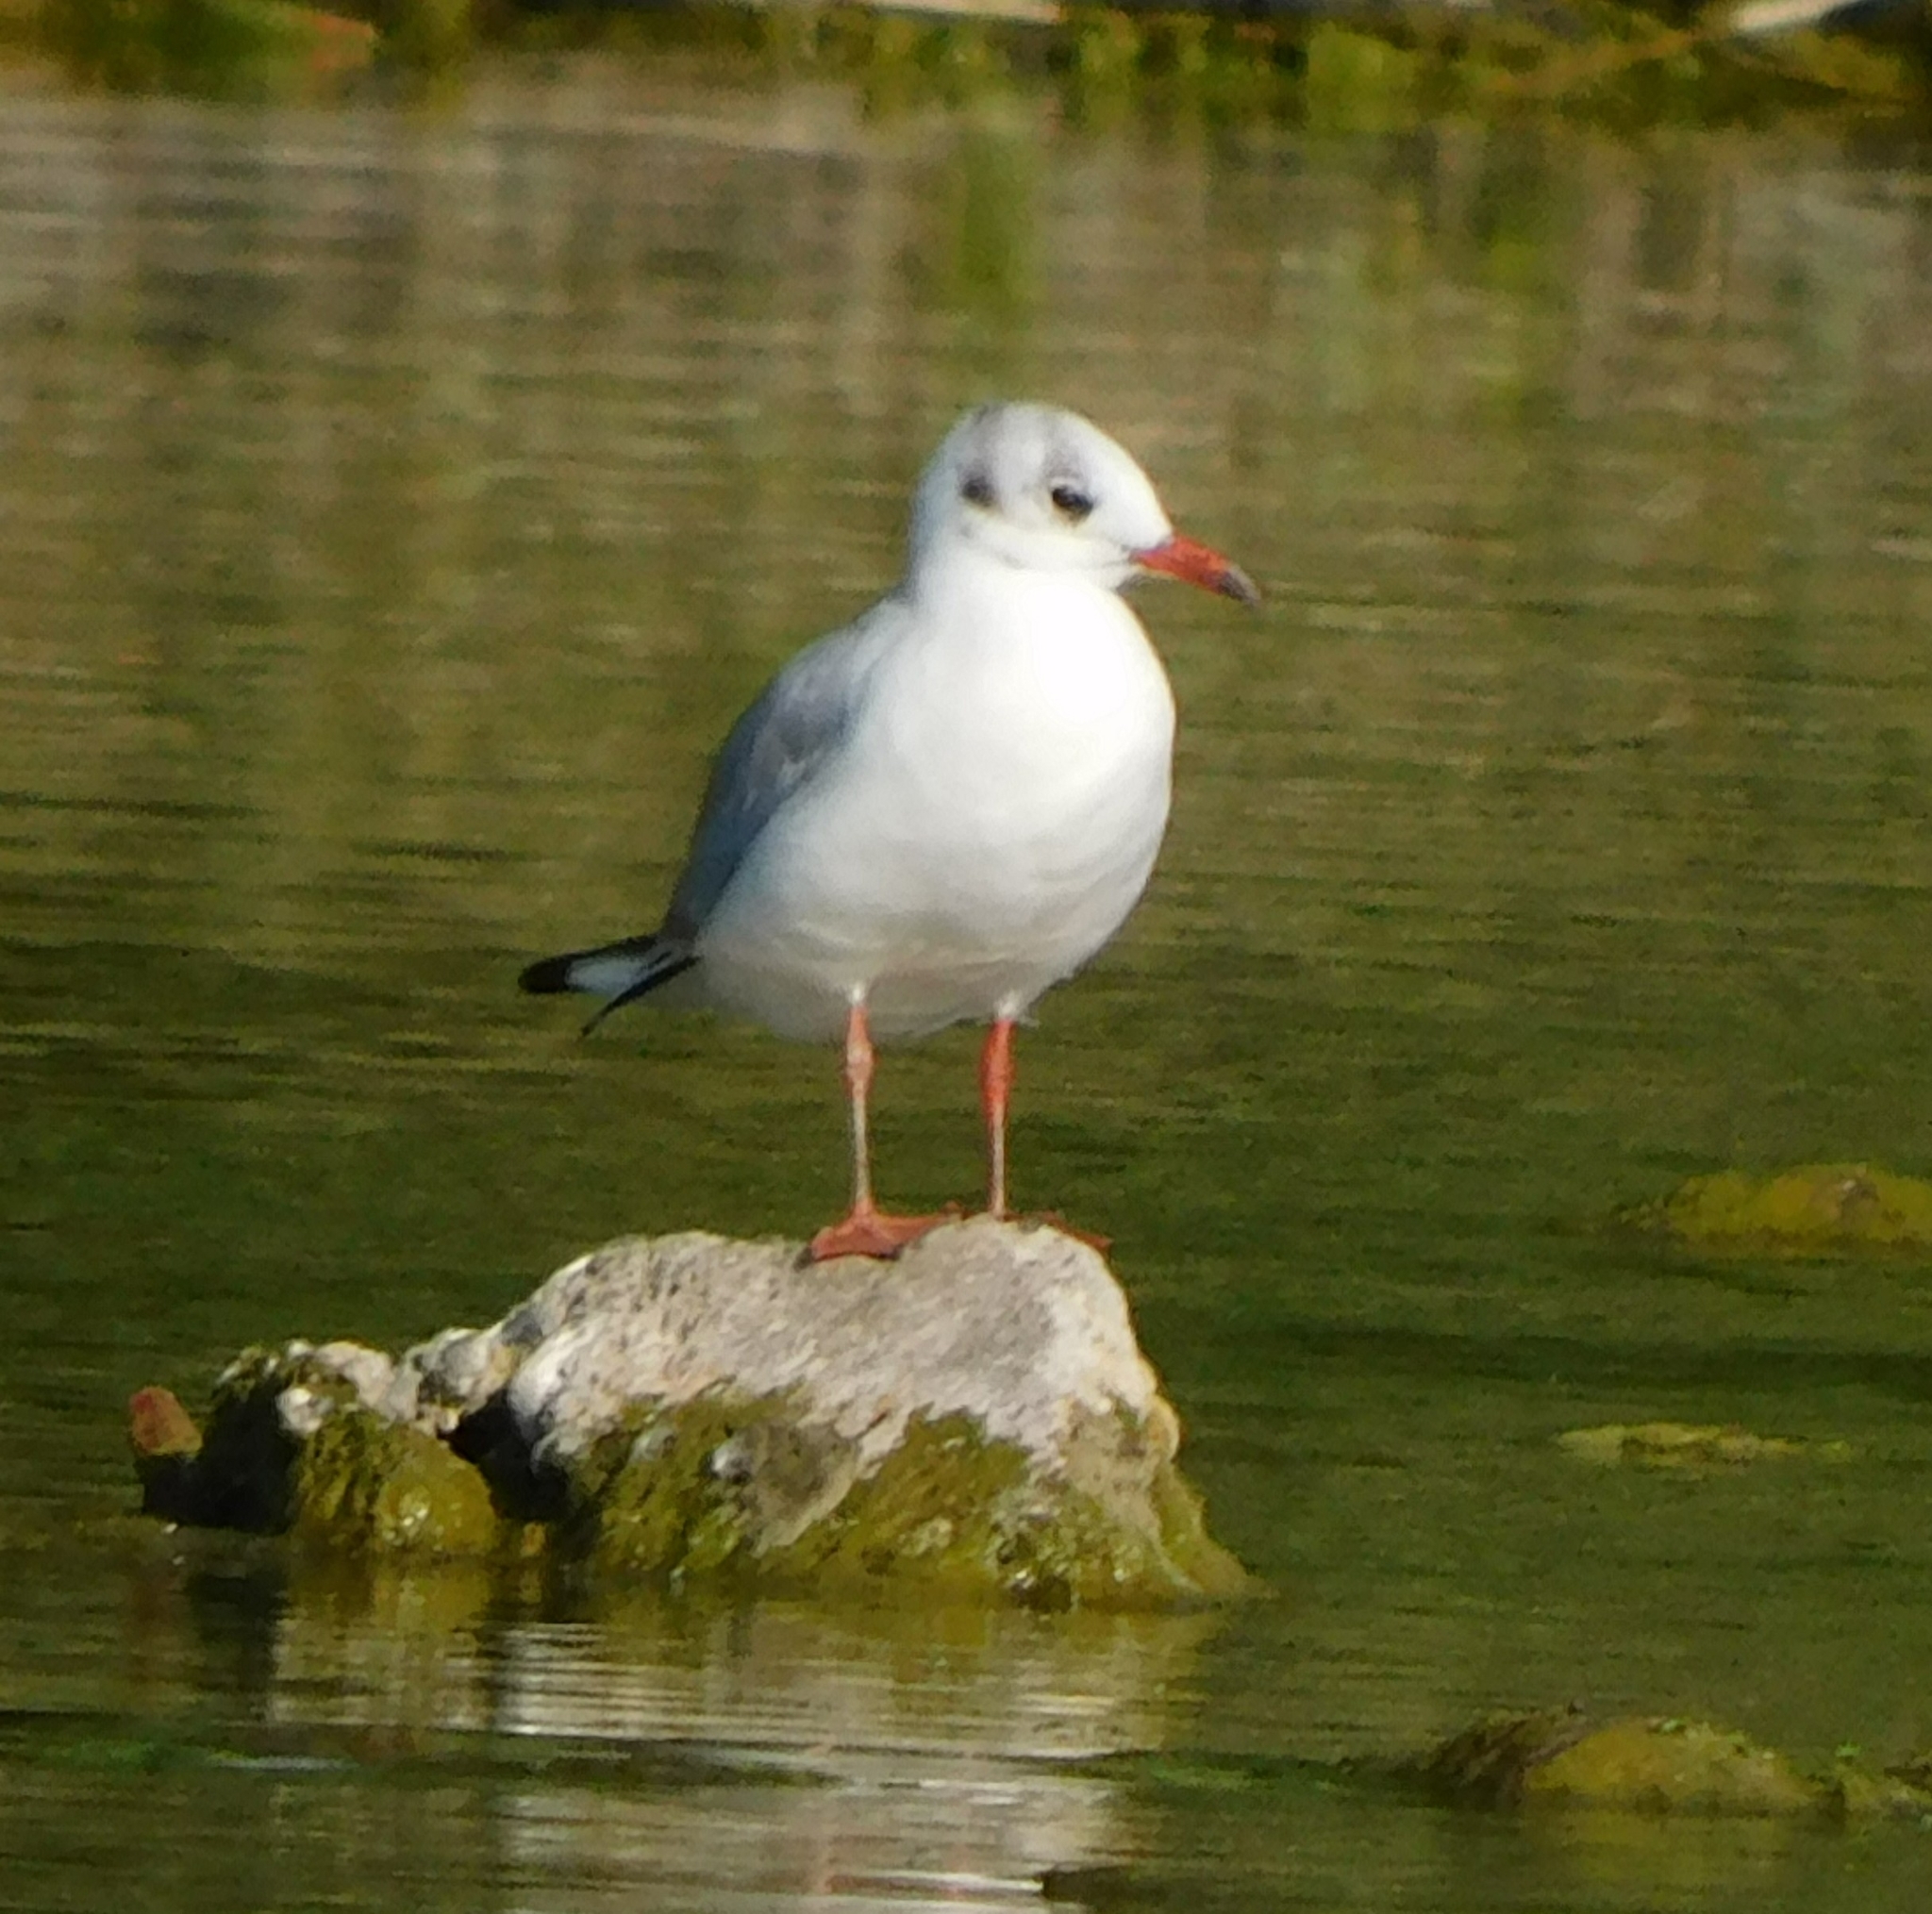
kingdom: Animalia
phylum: Chordata
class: Aves
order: Charadriiformes
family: Laridae
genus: Chroicocephalus
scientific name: Chroicocephalus ridibundus
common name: Black-headed gull
